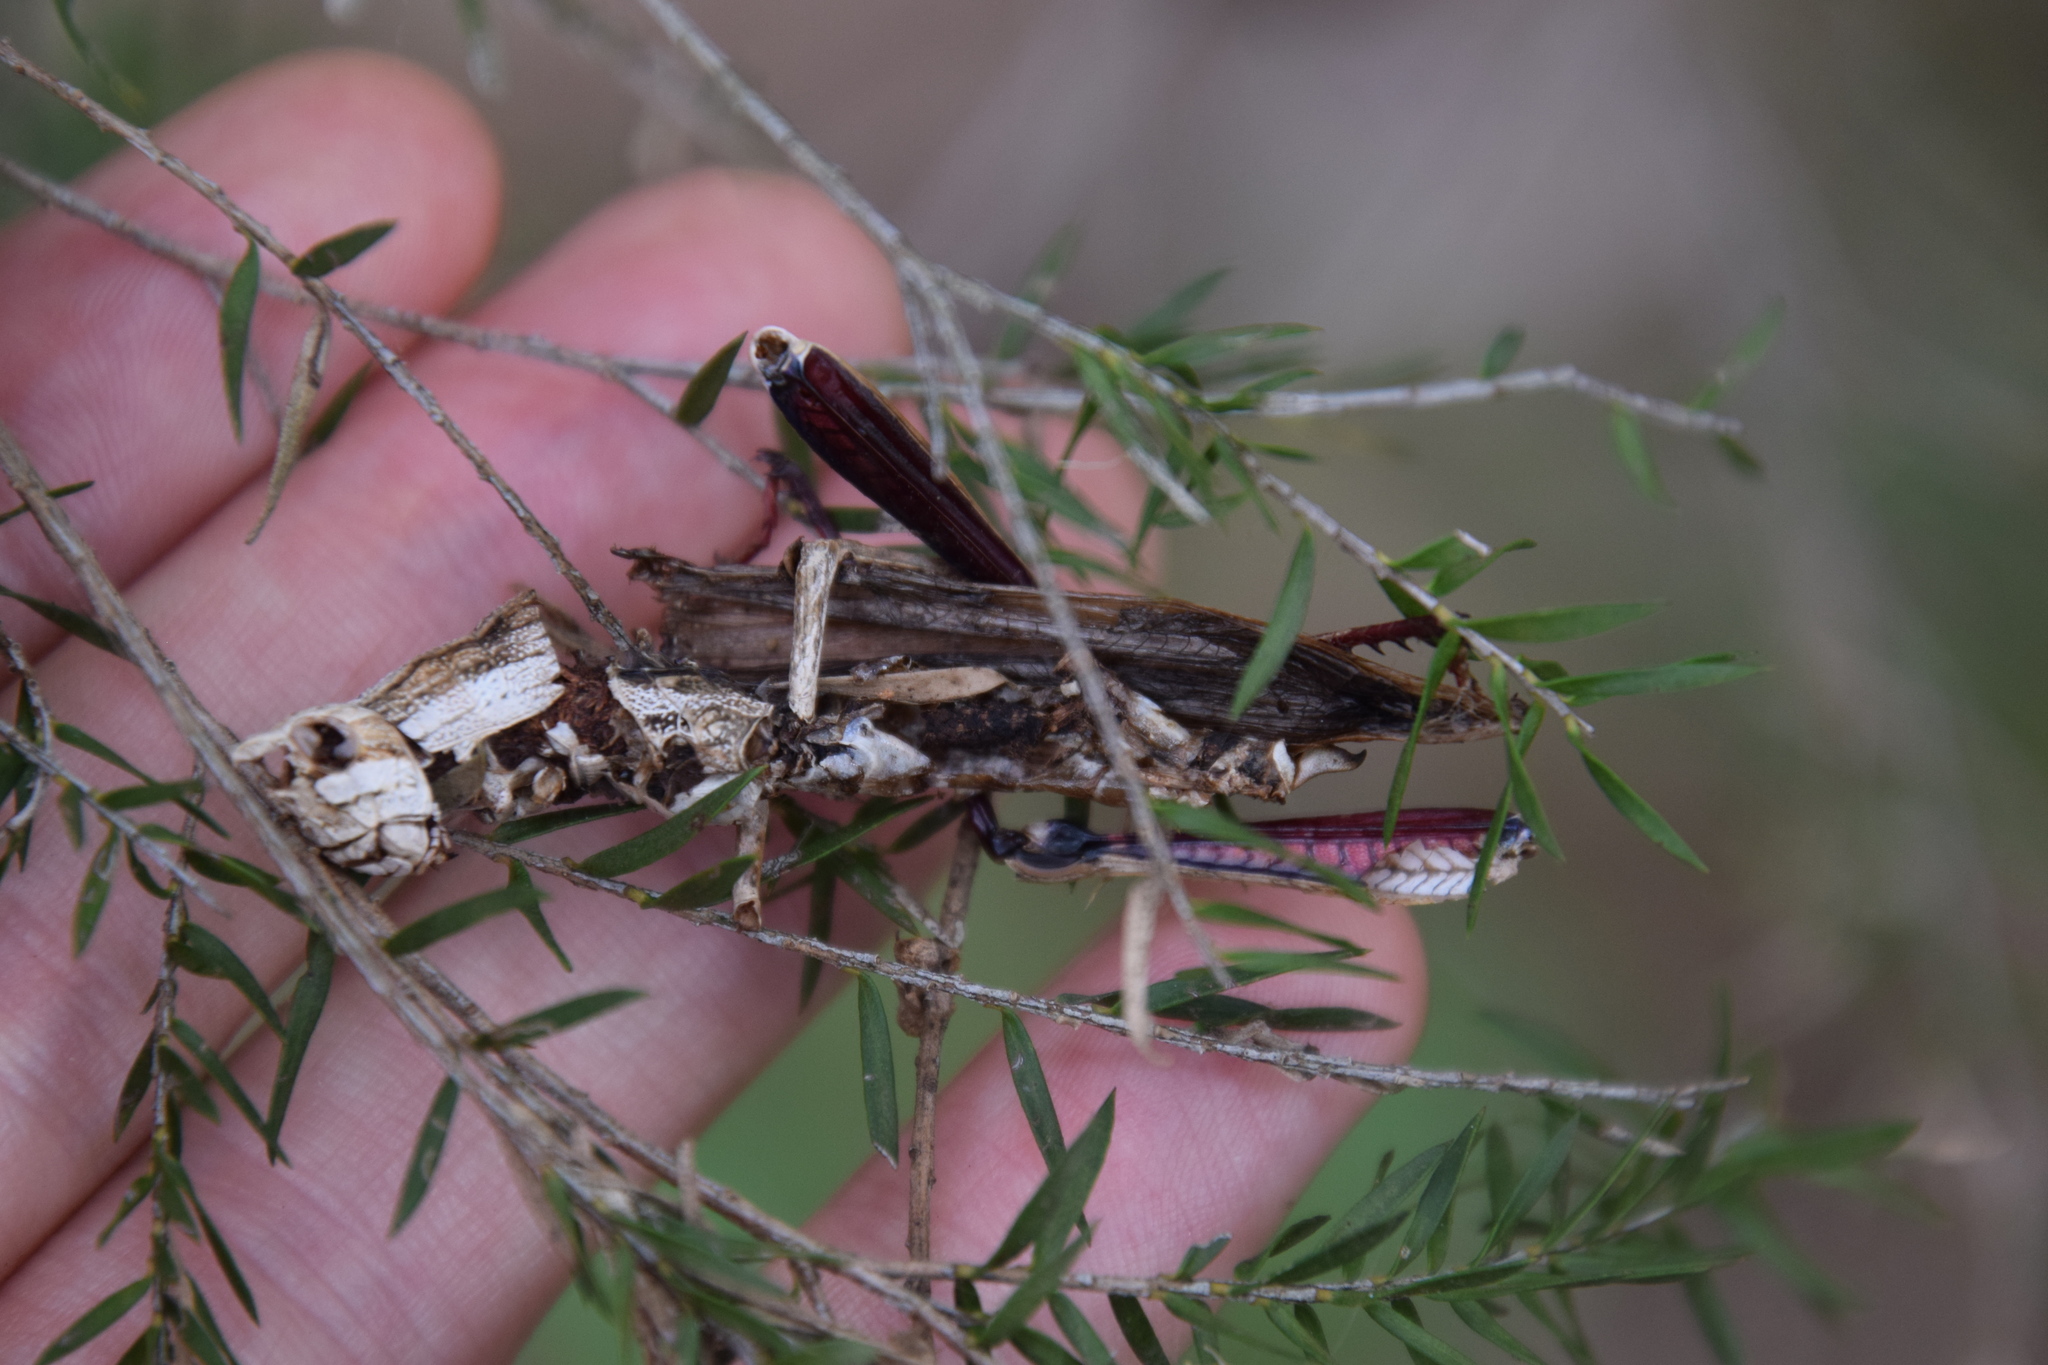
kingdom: Animalia
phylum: Arthropoda
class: Insecta
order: Orthoptera
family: Acrididae
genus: Coryphistes
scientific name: Coryphistes ruricola
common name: Bark-mimicking grasshopper
